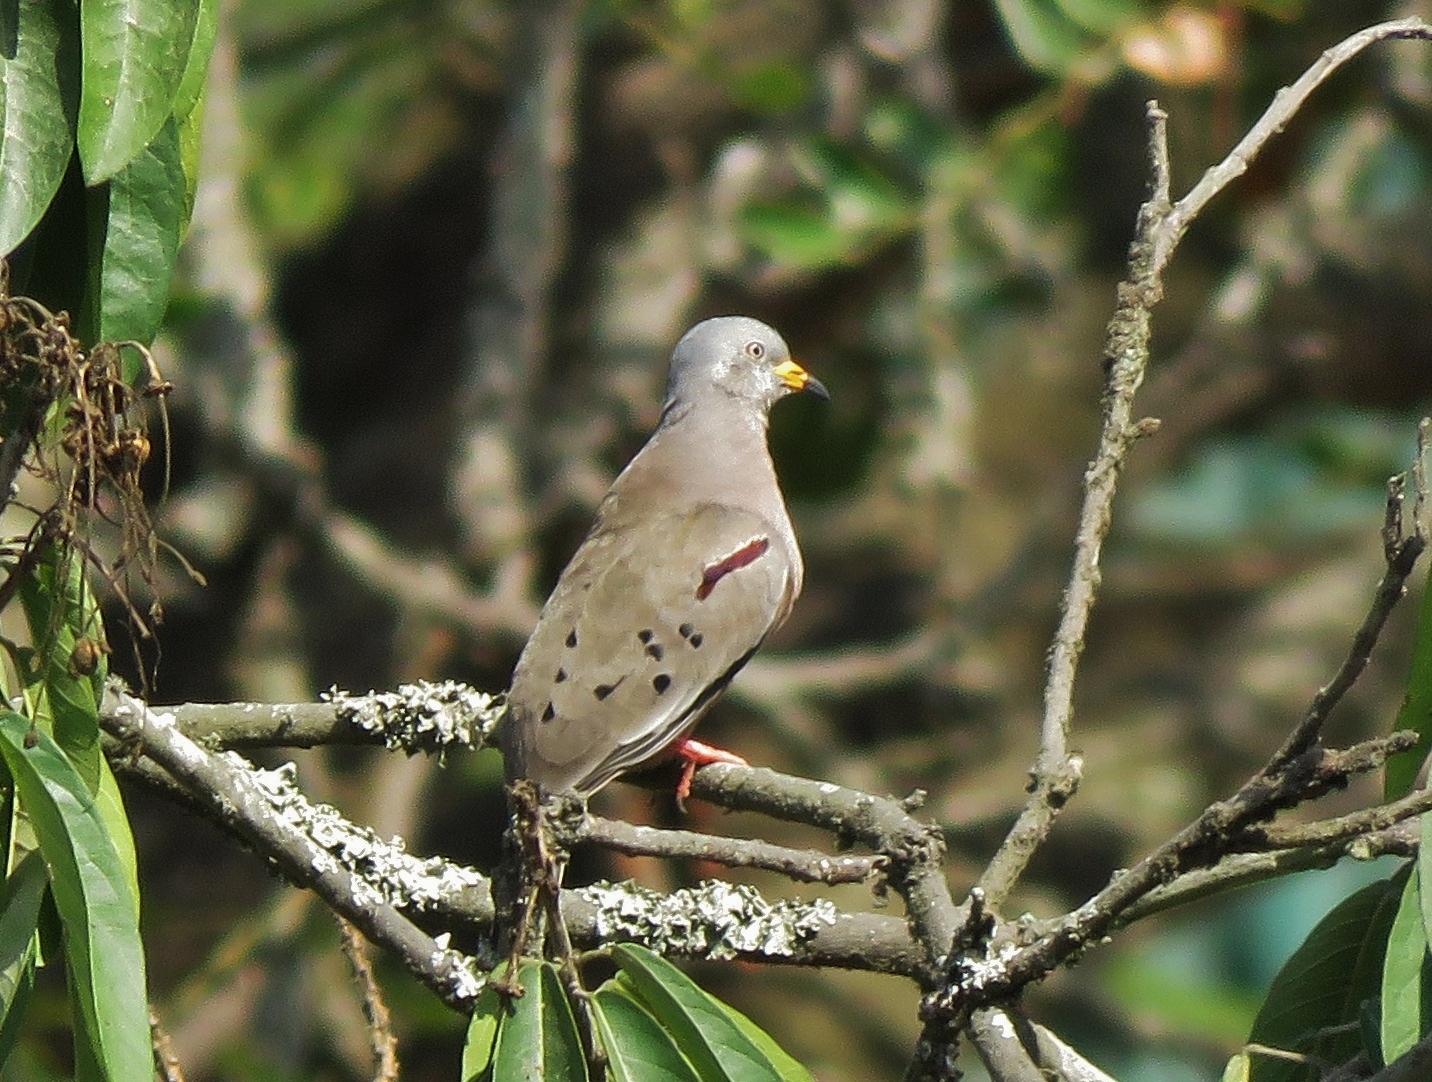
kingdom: Animalia
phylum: Chordata
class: Aves
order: Columbiformes
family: Columbidae
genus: Columbina
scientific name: Columbina cruziana
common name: Croaking ground dove
